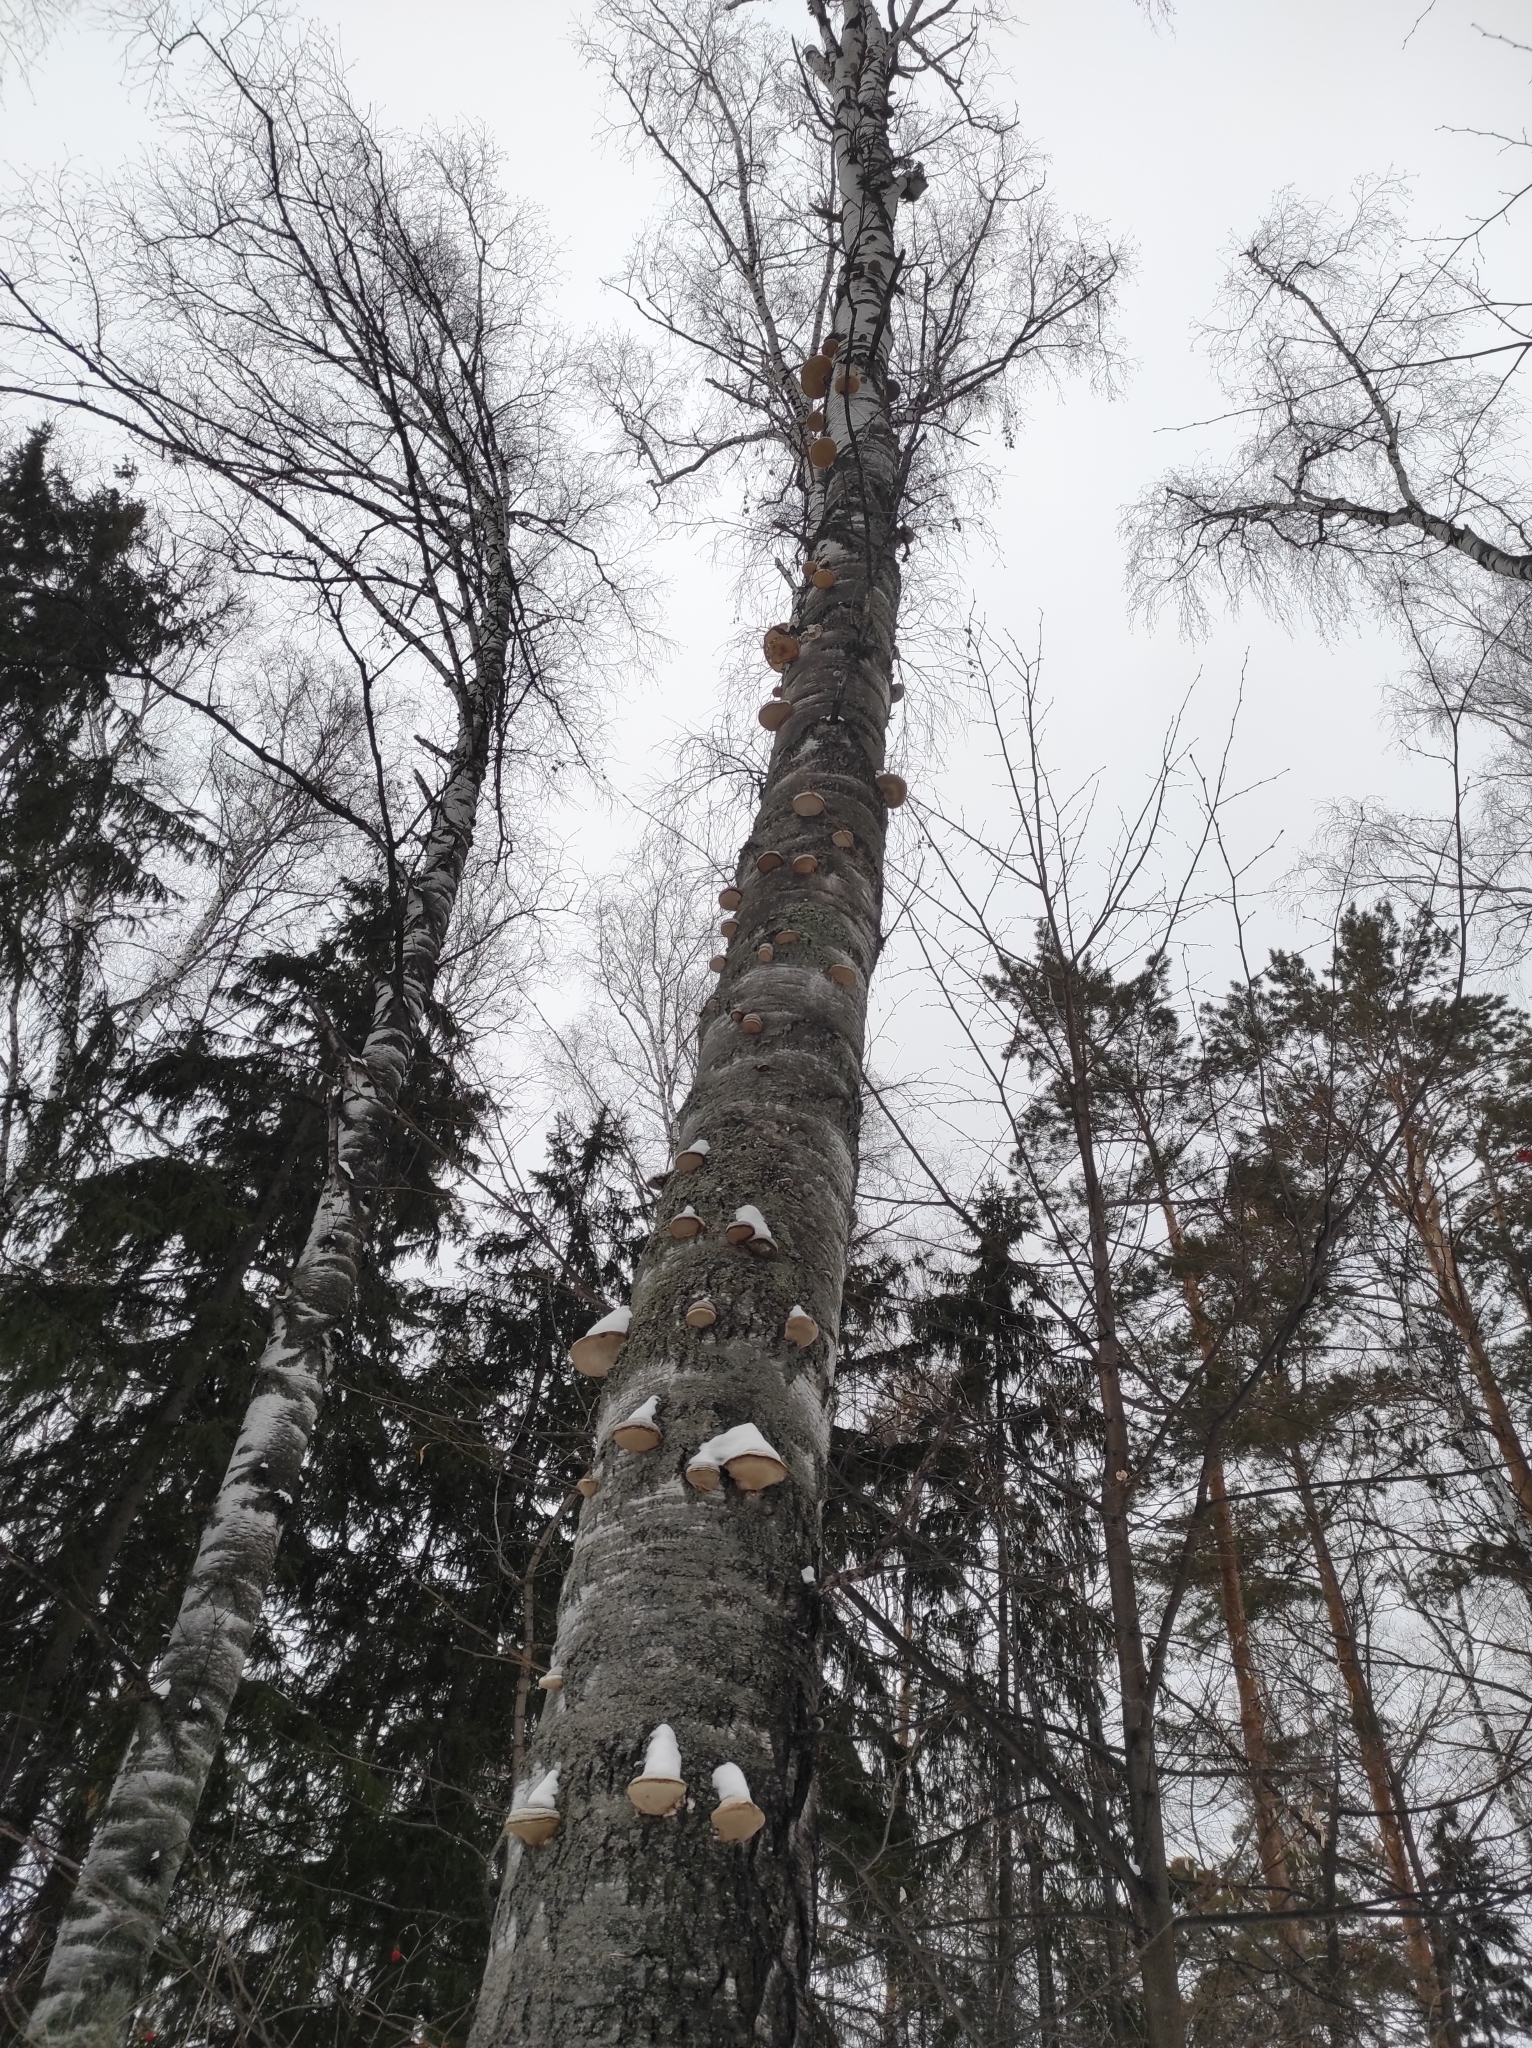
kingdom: Plantae
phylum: Tracheophyta
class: Magnoliopsida
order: Fagales
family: Betulaceae
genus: Betula
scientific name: Betula pendula
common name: Silver birch
